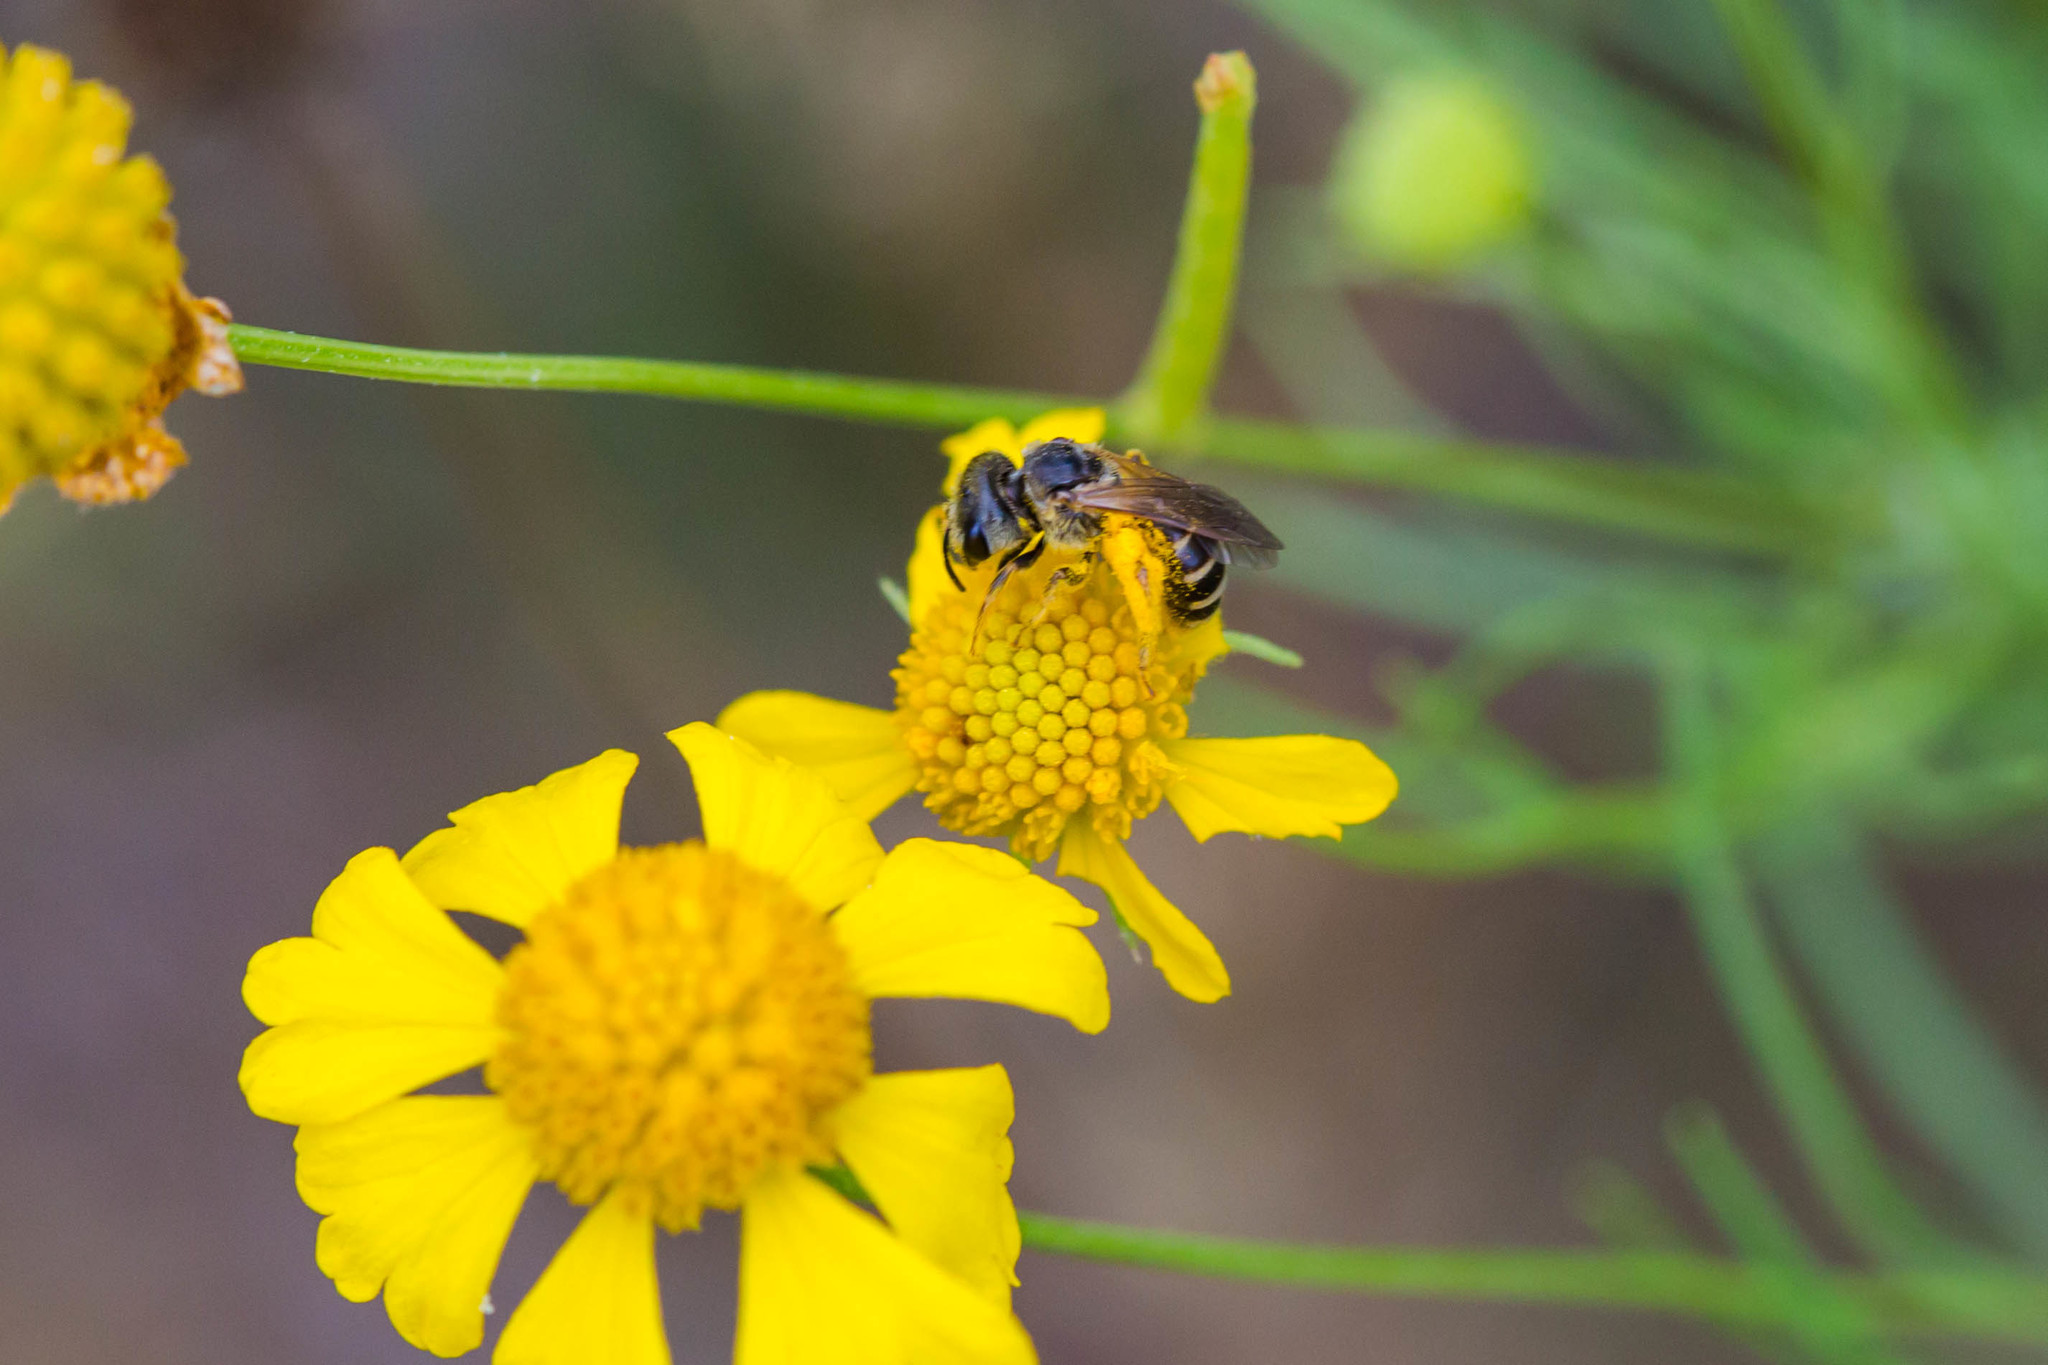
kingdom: Animalia
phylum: Arthropoda
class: Insecta
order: Hymenoptera
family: Halictidae
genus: Halictus
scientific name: Halictus ligatus
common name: Ligated furrow bee
